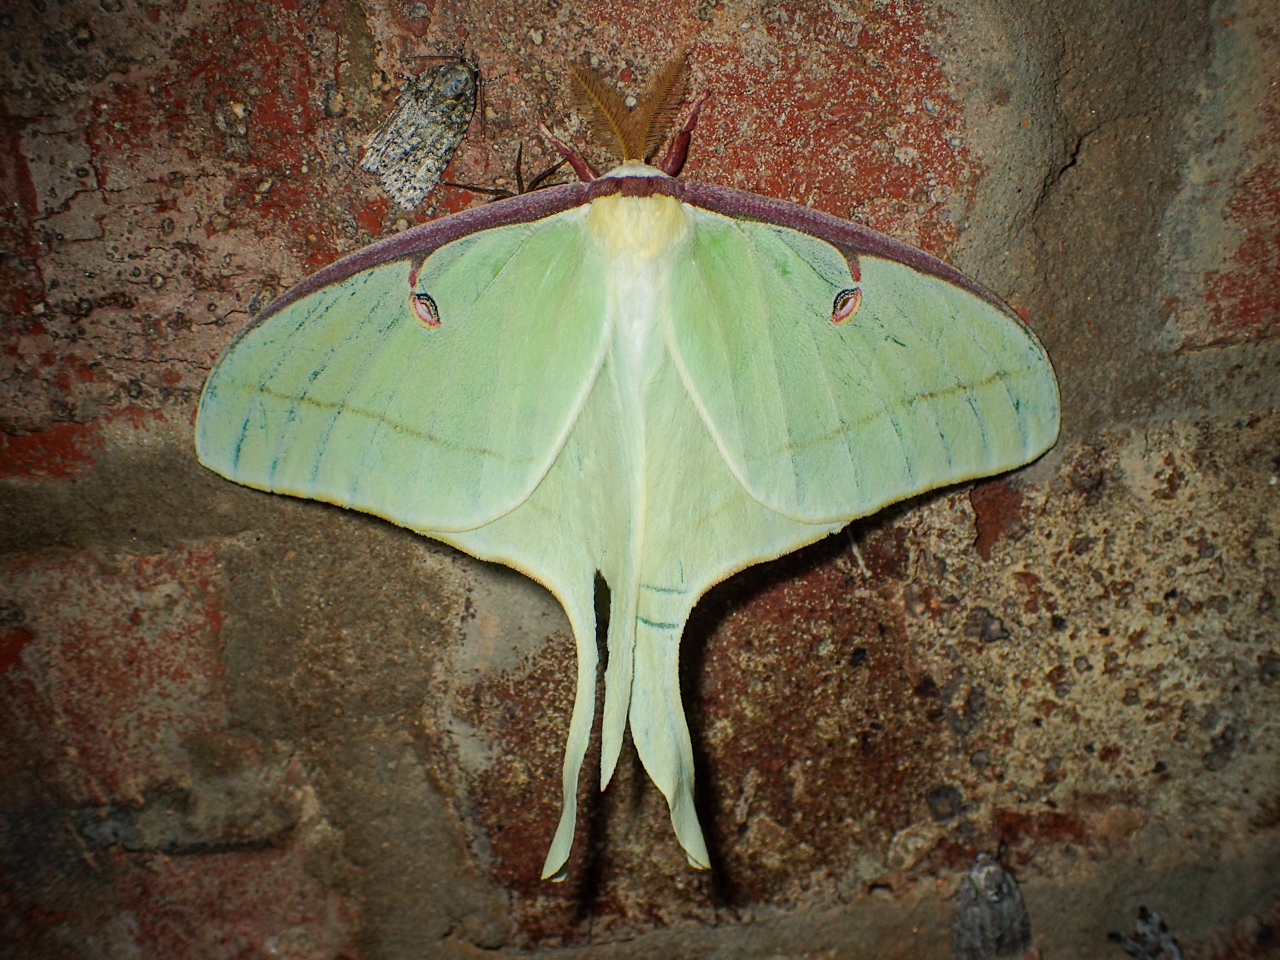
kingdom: Animalia
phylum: Arthropoda
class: Insecta
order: Lepidoptera
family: Saturniidae
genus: Actias
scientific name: Actias luna
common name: Luna moth
